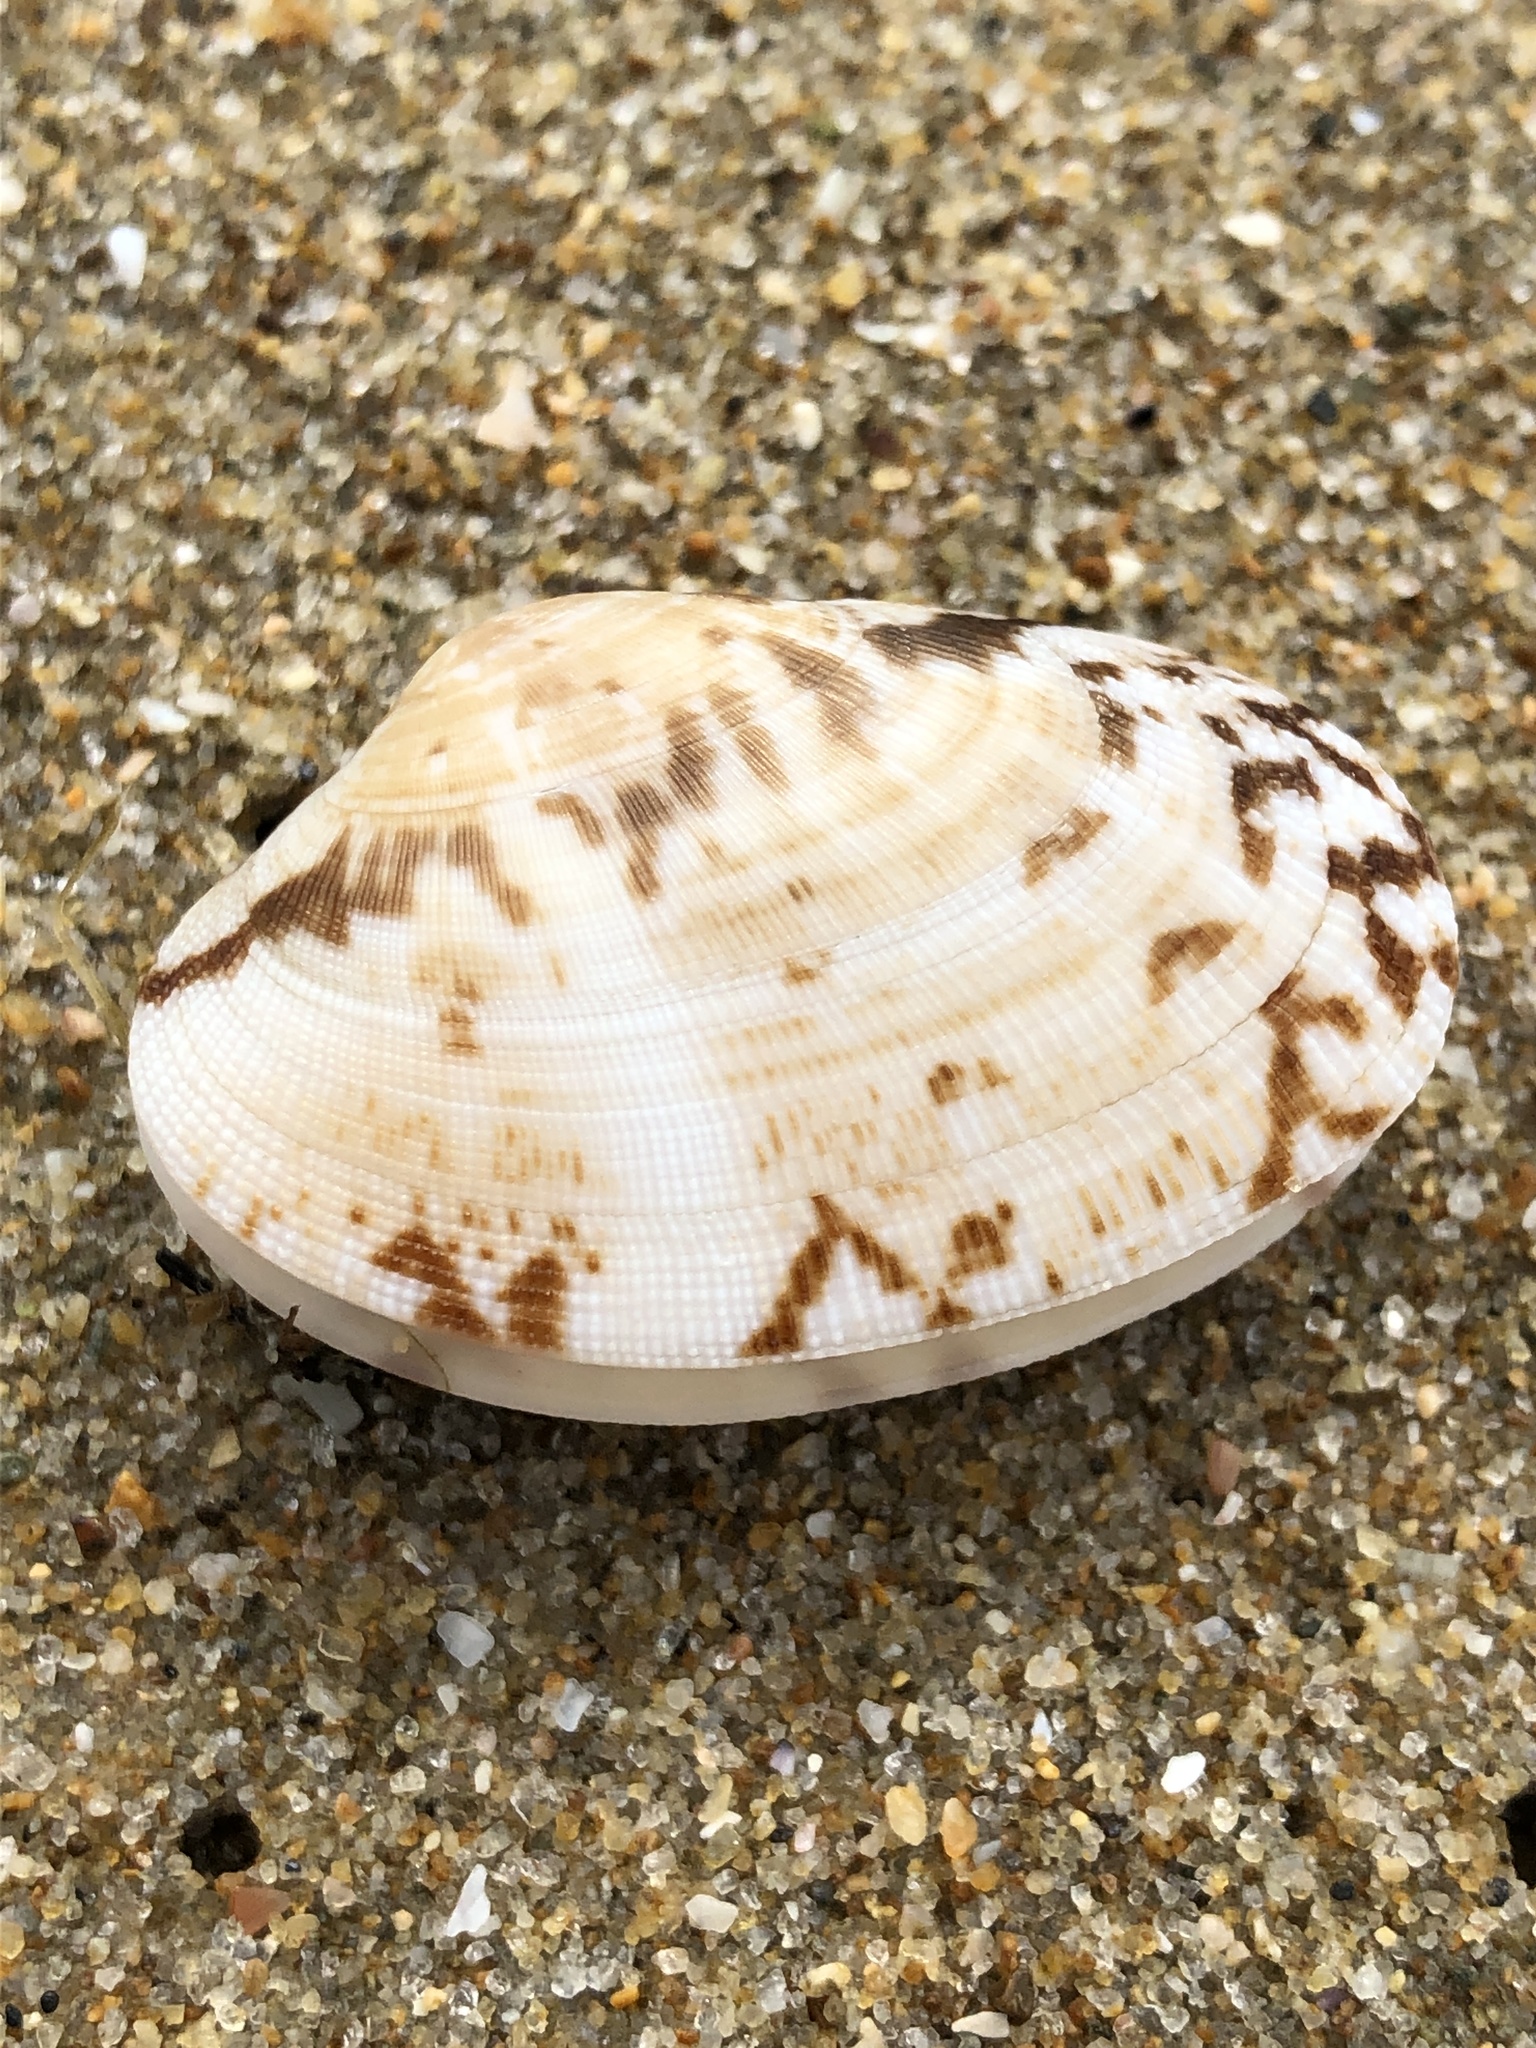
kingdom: Animalia
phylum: Mollusca
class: Bivalvia
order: Venerida
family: Veneridae
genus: Ruditapes
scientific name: Ruditapes philippinarum
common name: Manila clam
